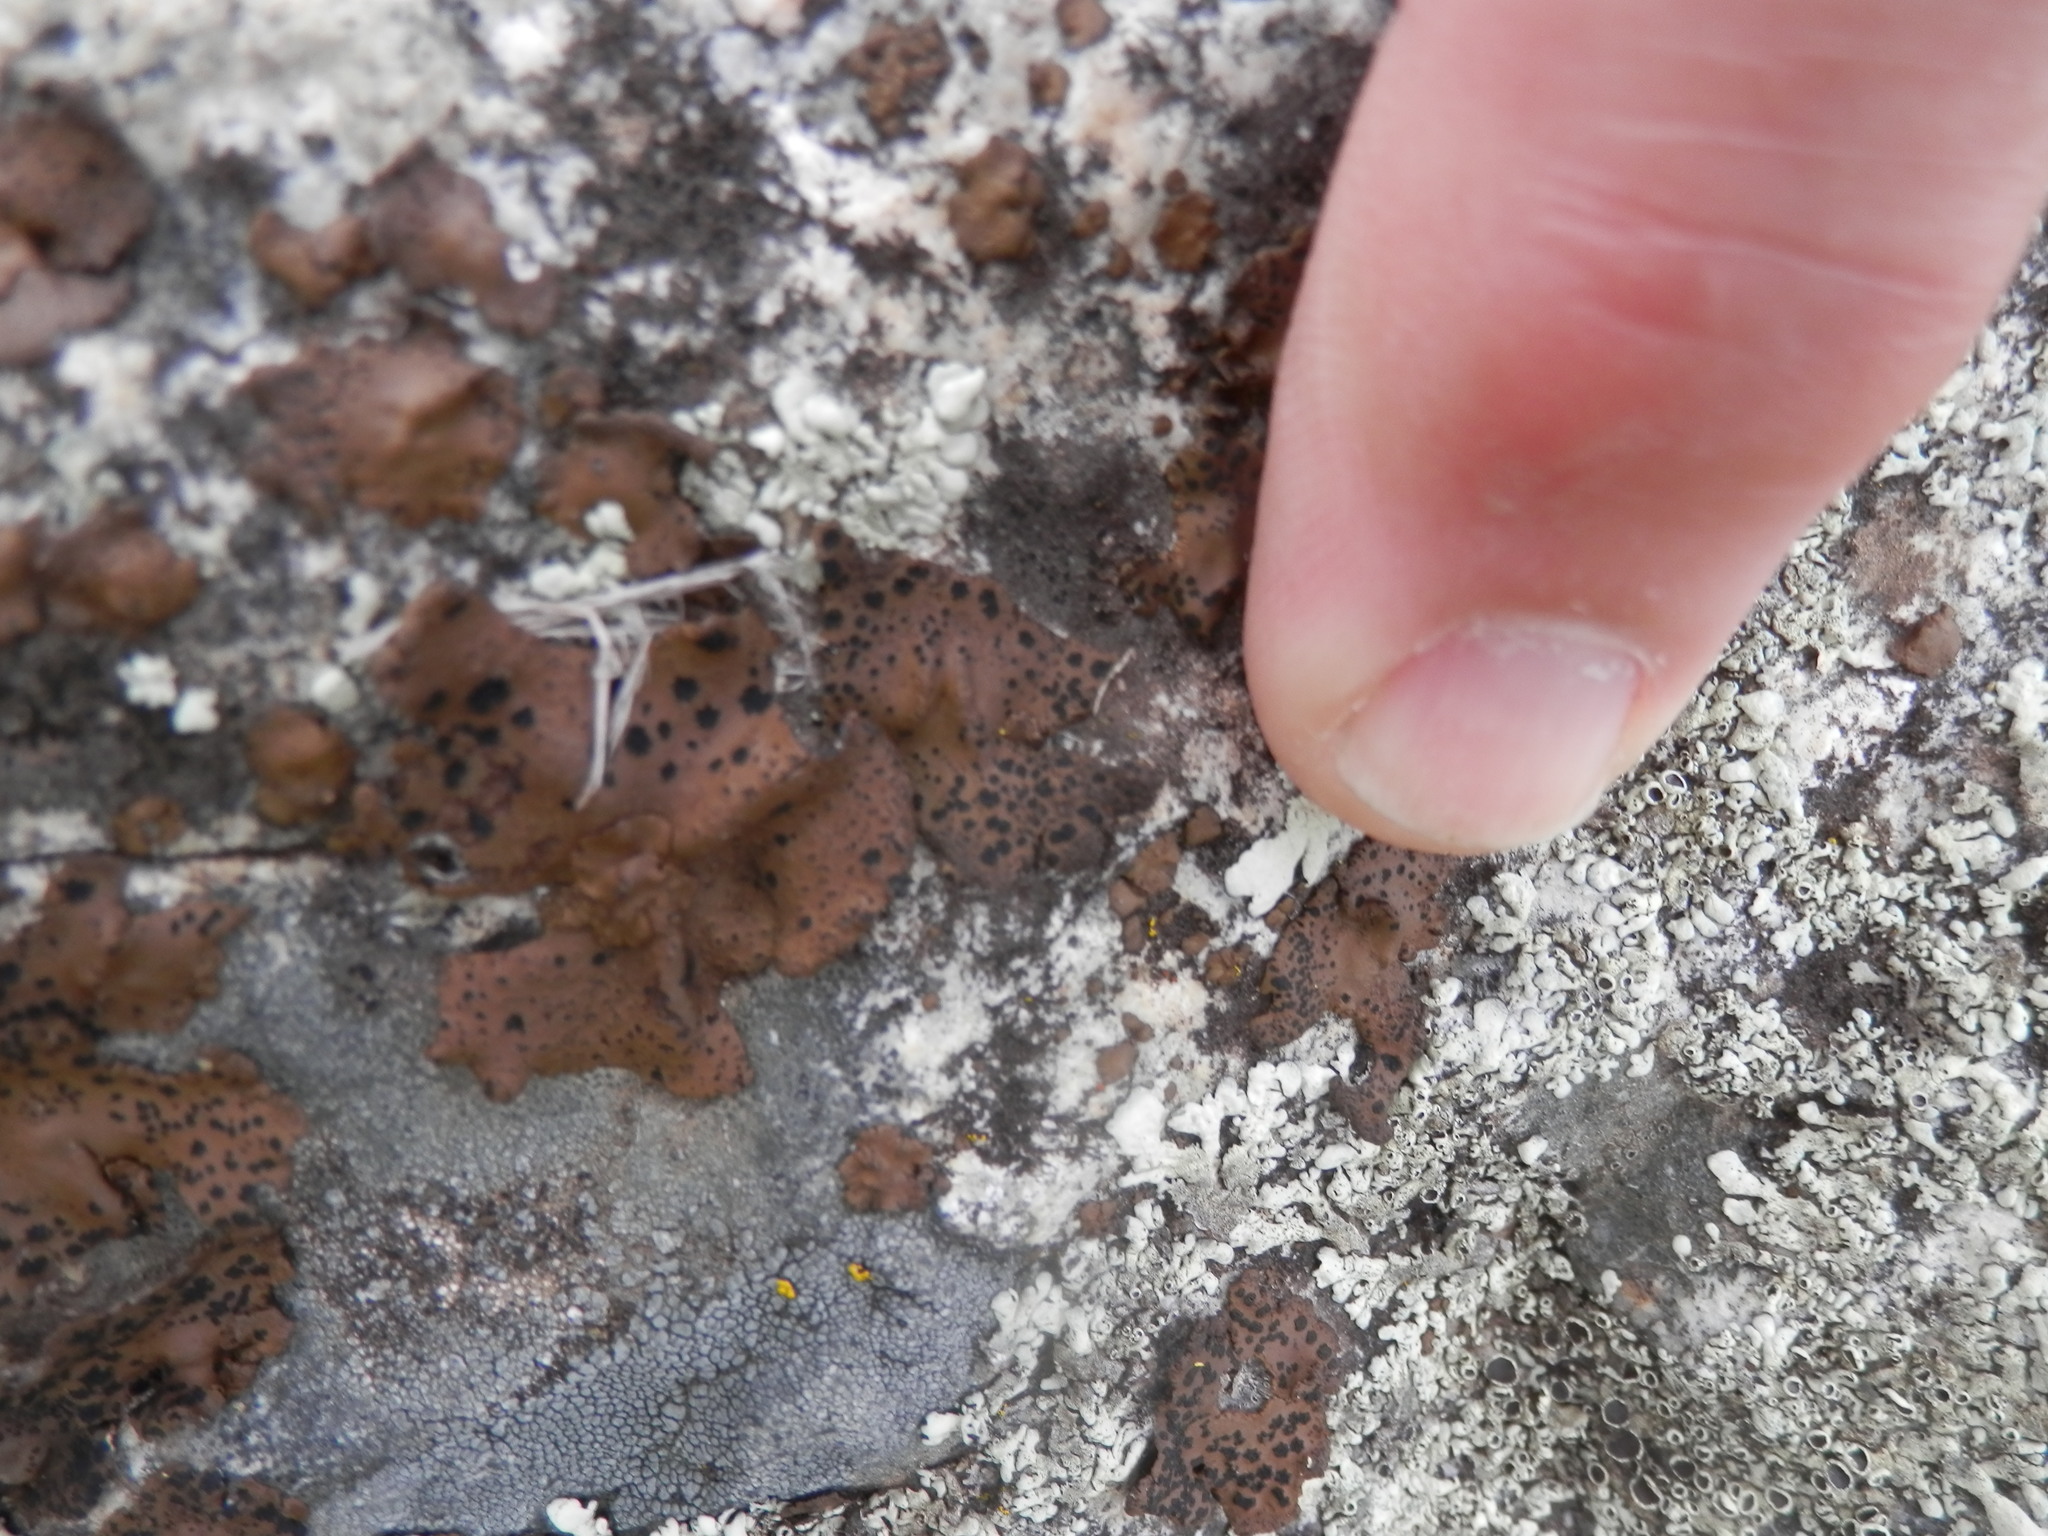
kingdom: Fungi
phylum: Ascomycota
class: Lecanoromycetes
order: Umbilicariales
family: Umbilicariaceae
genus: Umbilicaria
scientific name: Umbilicaria phaea
